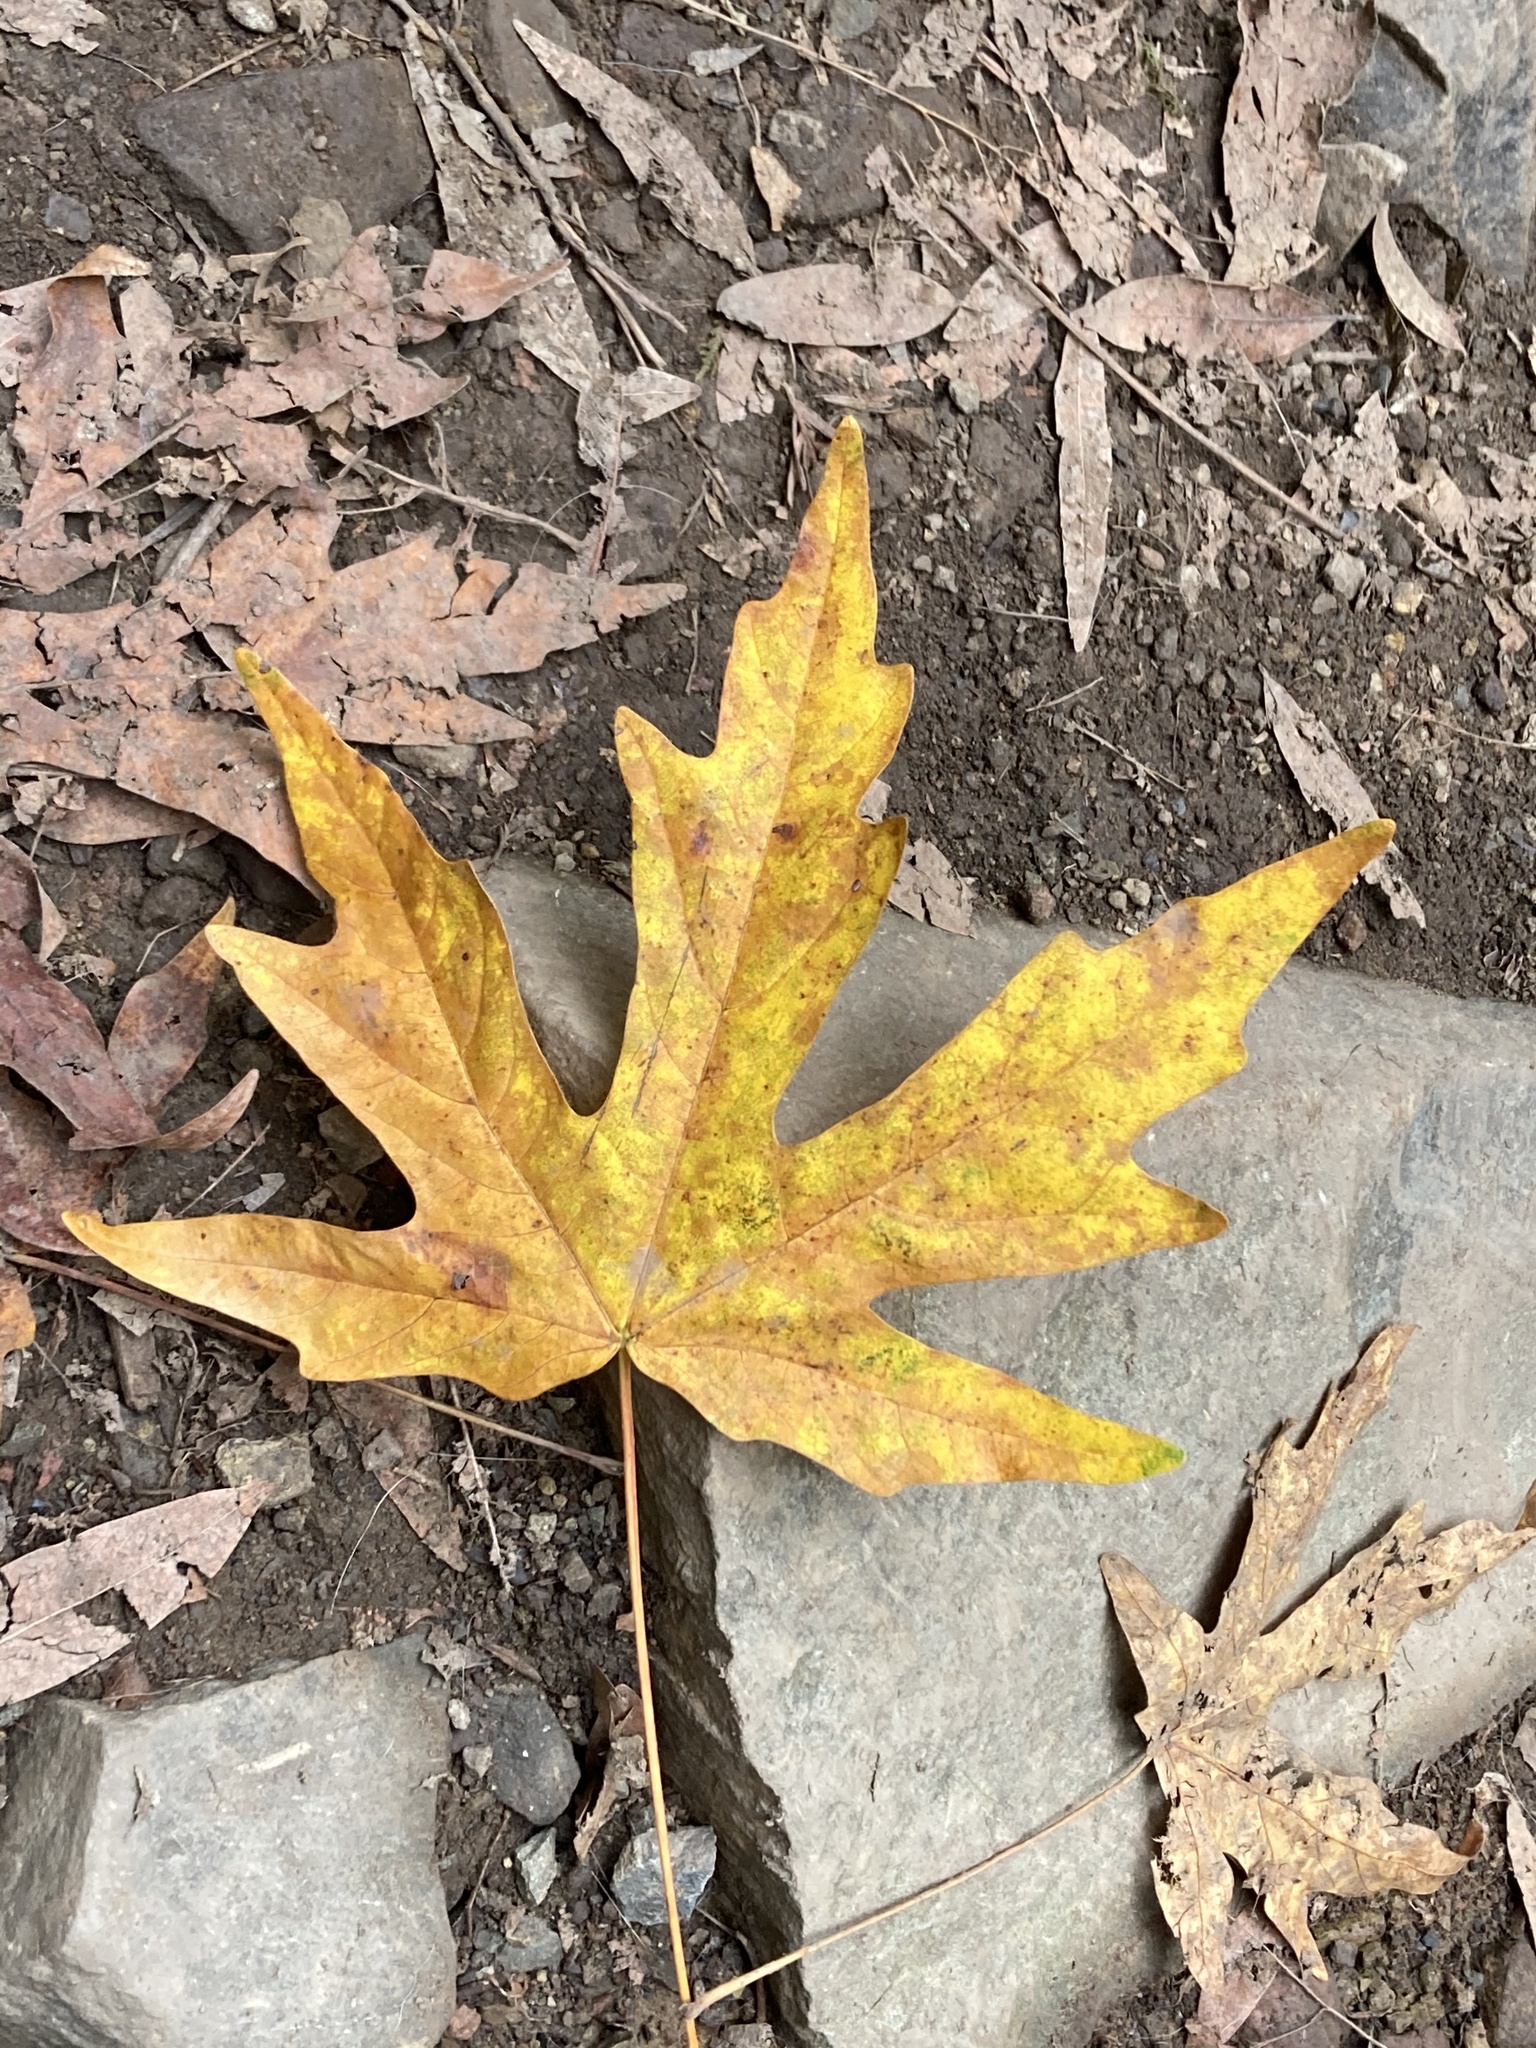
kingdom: Plantae
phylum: Tracheophyta
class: Magnoliopsida
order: Sapindales
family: Sapindaceae
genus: Acer
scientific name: Acer macrophyllum
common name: Oregon maple
